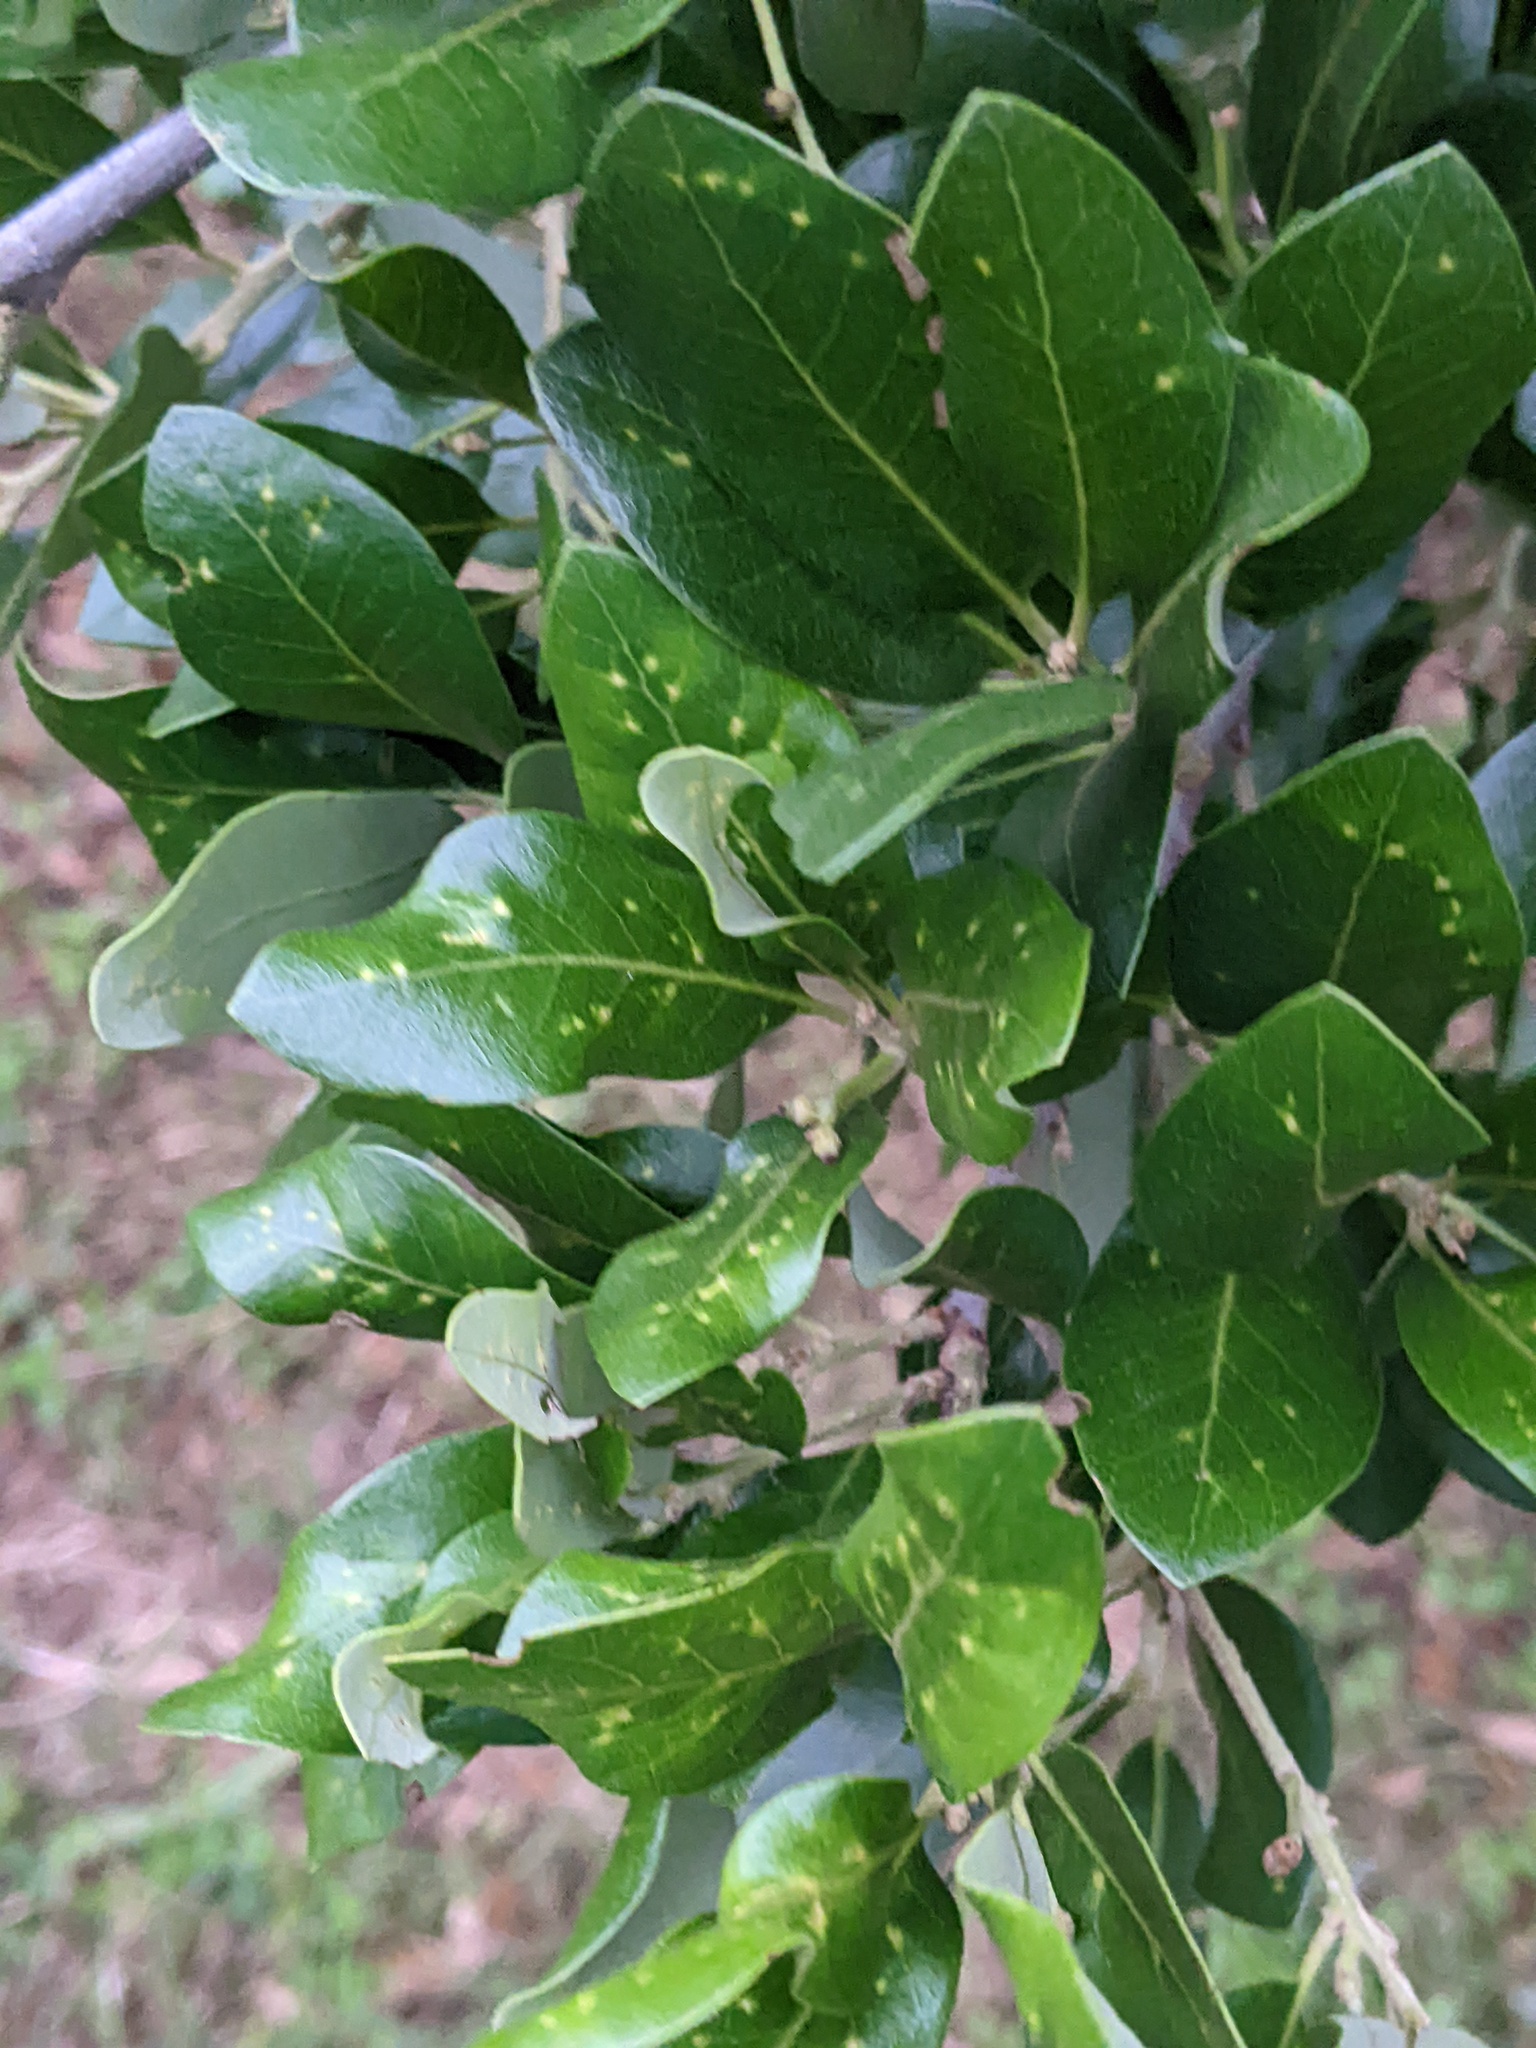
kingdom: Animalia
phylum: Arthropoda
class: Insecta
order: Hymenoptera
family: Cynipidae
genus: Belonocnema
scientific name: Belonocnema kinseyi
